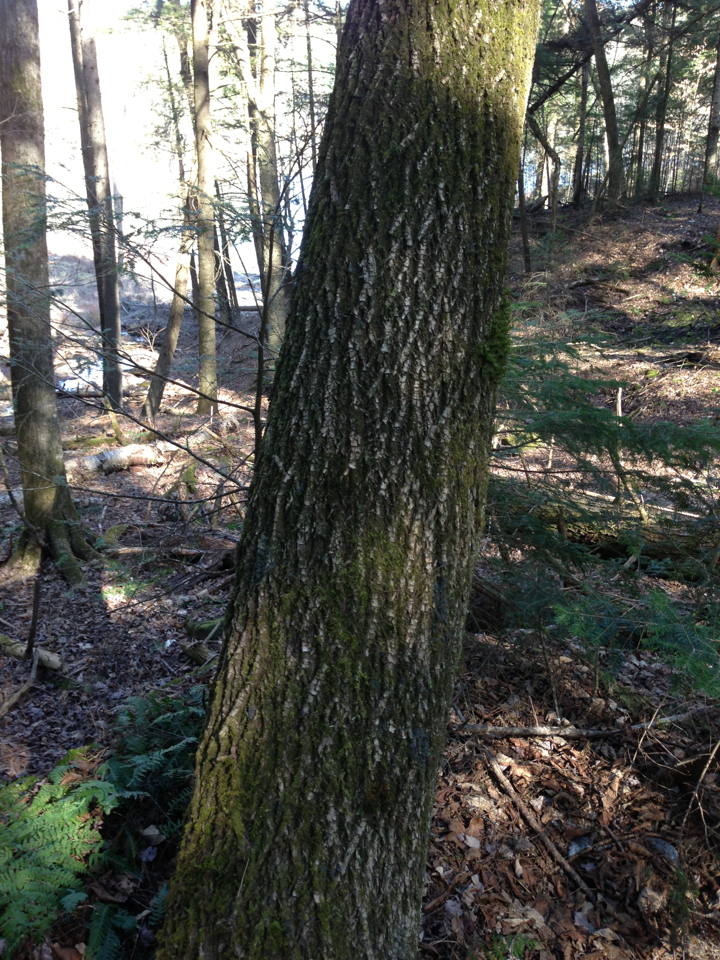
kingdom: Plantae
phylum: Tracheophyta
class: Magnoliopsida
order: Lamiales
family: Oleaceae
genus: Fraxinus
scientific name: Fraxinus americana
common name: White ash
